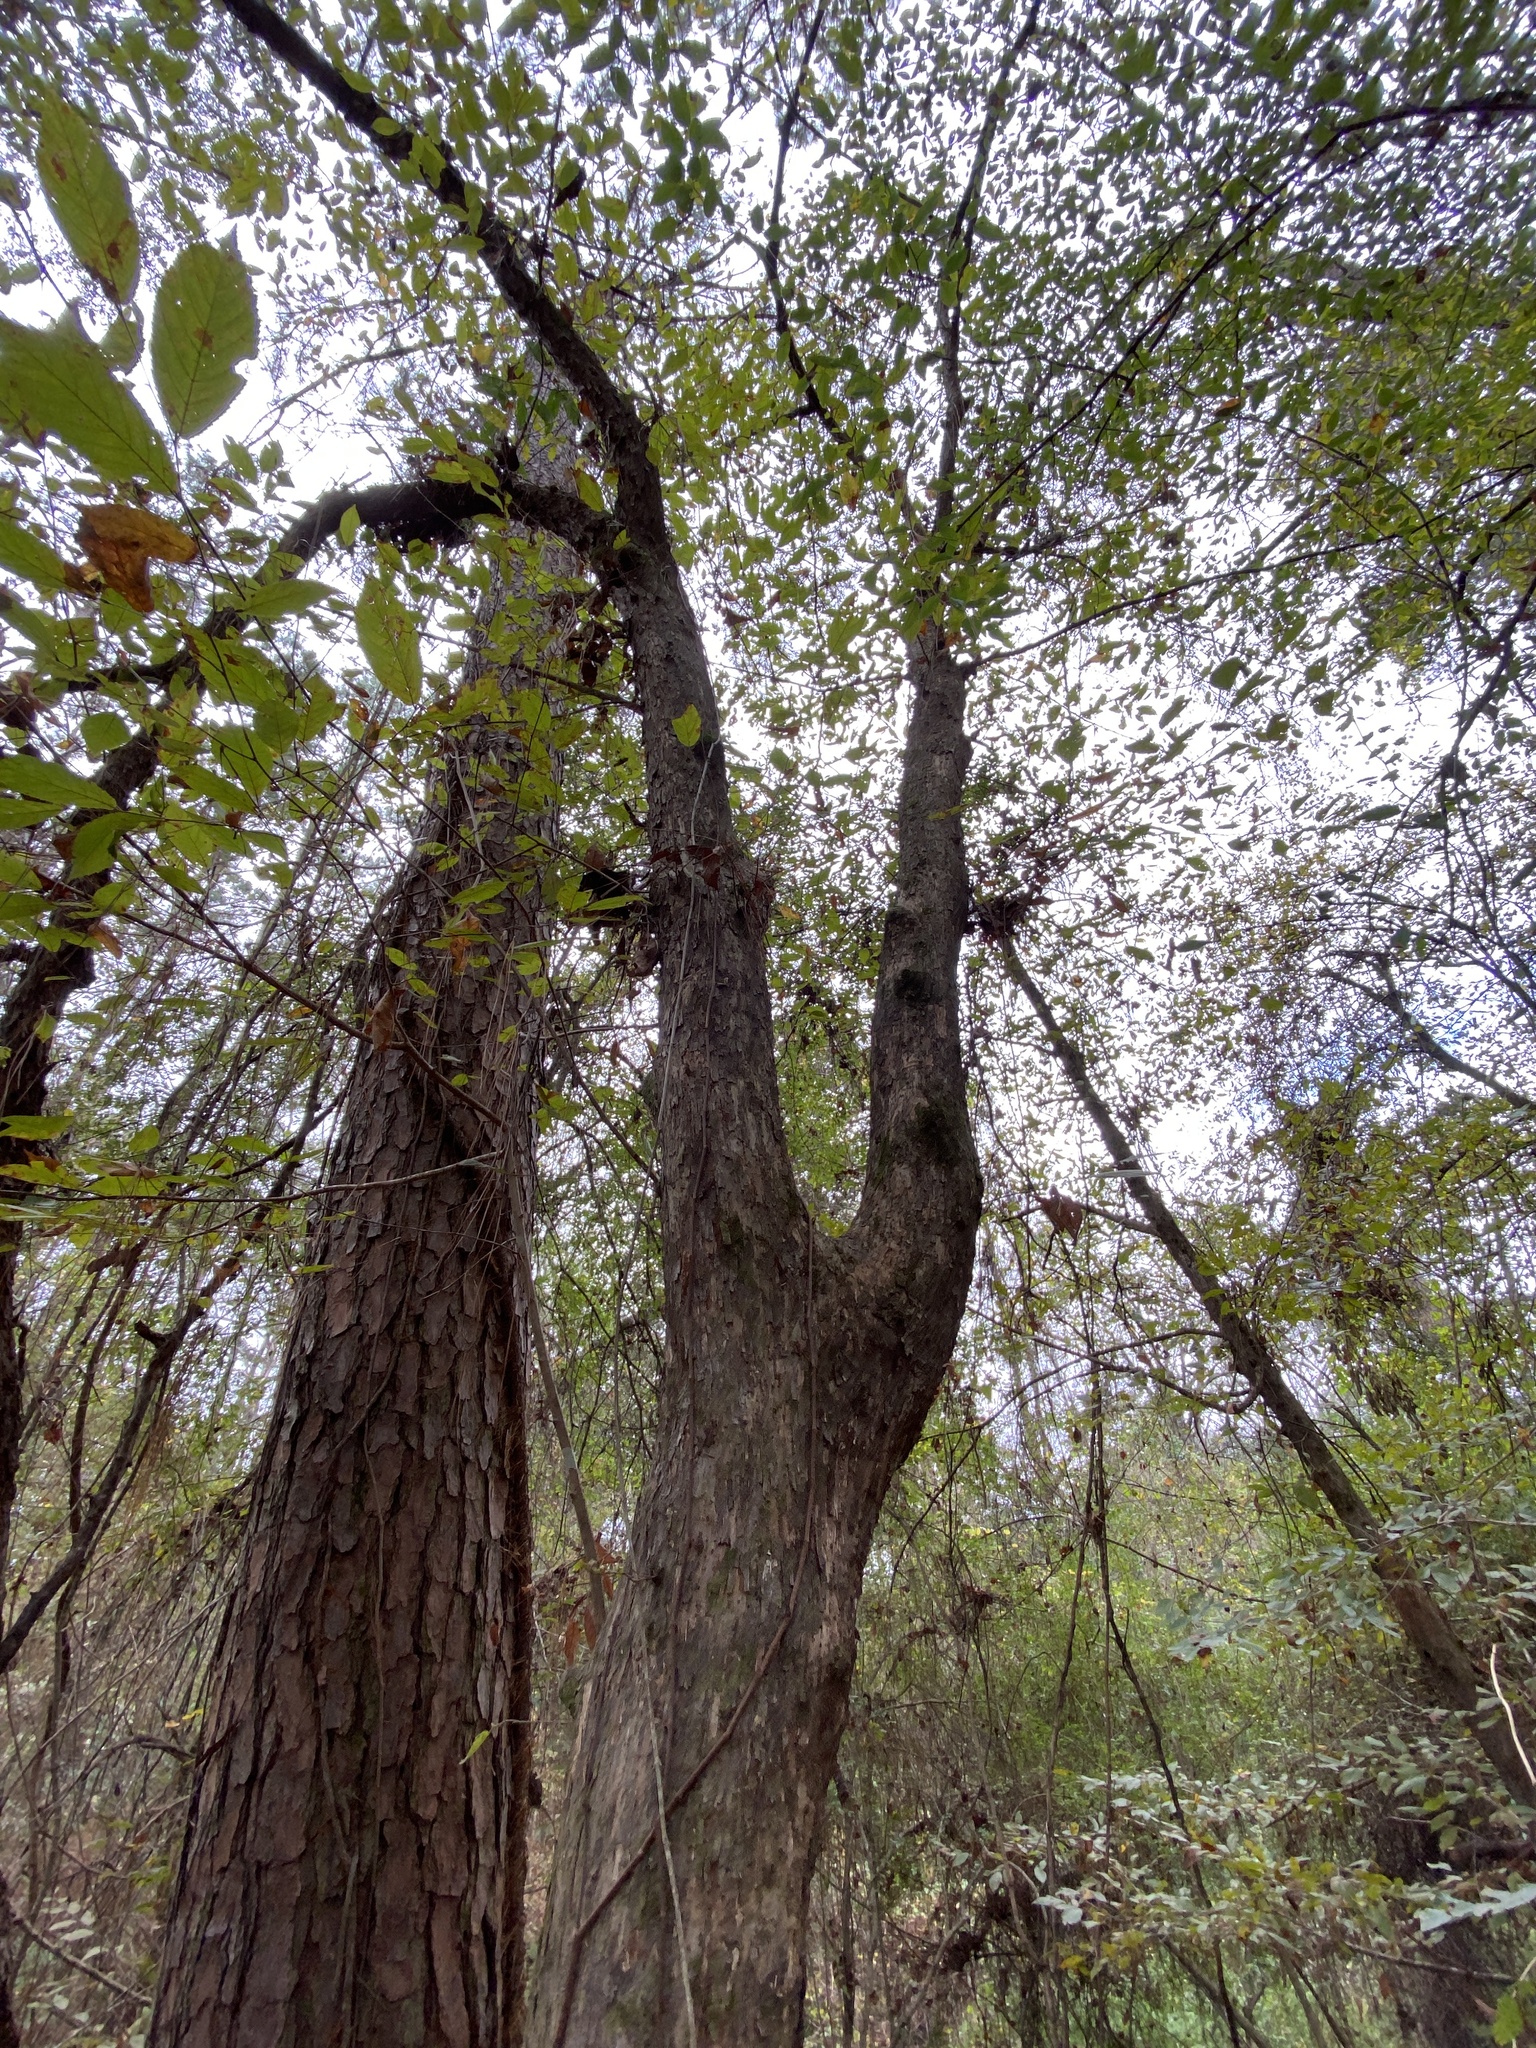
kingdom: Plantae
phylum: Tracheophyta
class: Magnoliopsida
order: Fagales
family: Betulaceae
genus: Ostrya
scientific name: Ostrya virginiana
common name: Ironwood
